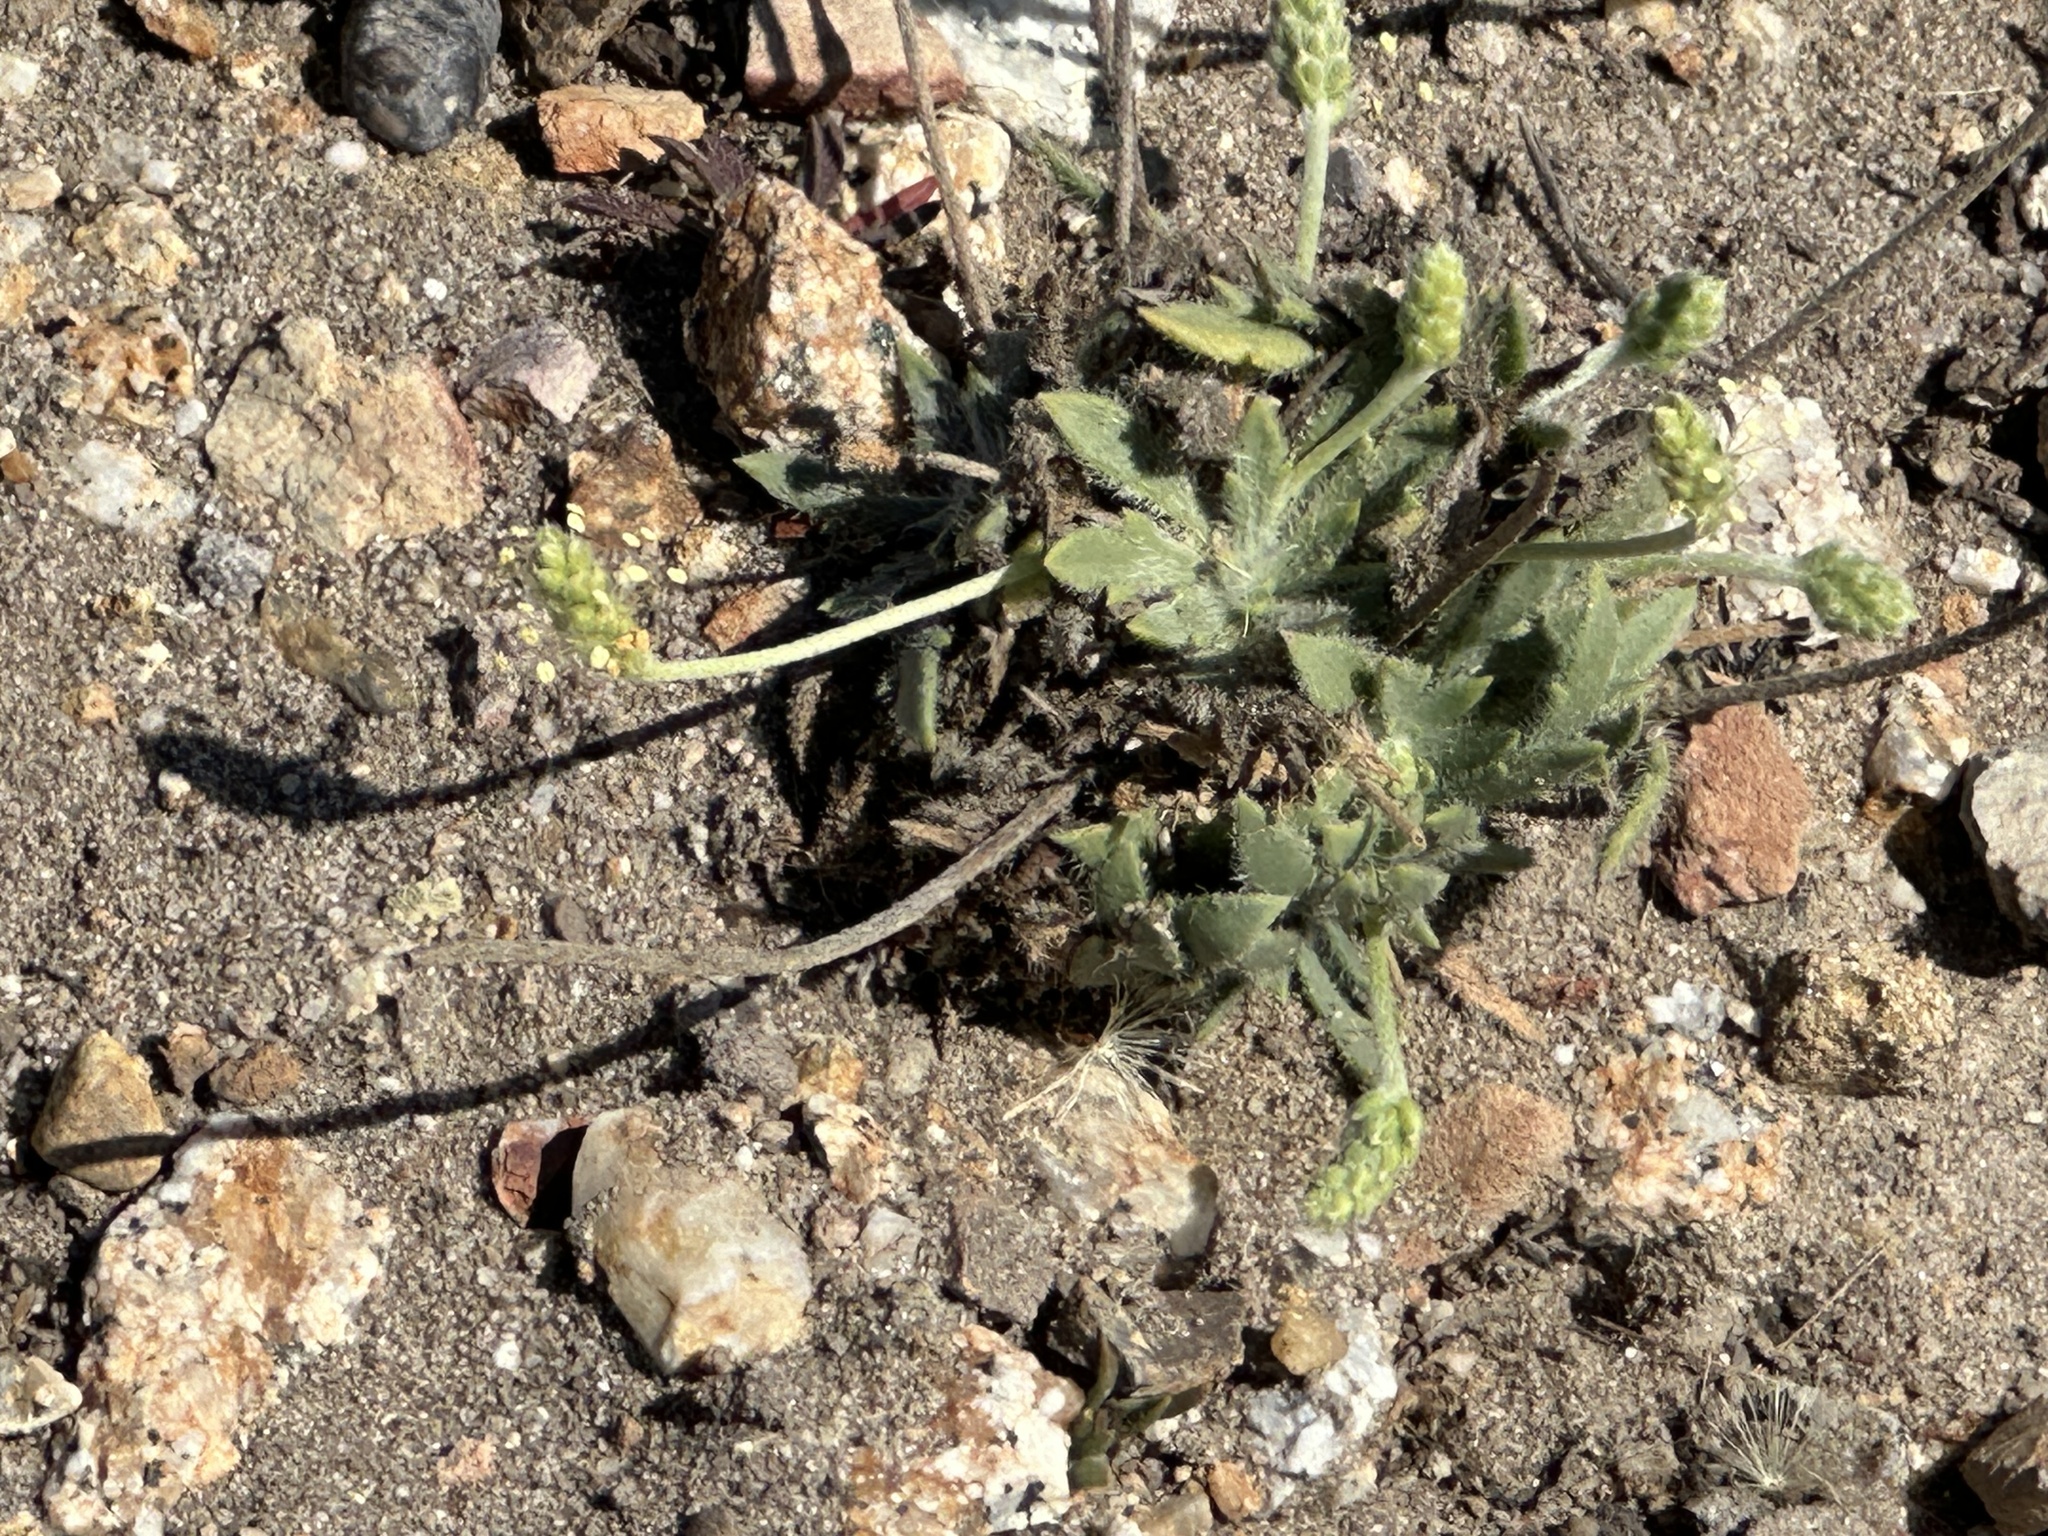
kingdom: Plantae
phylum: Tracheophyta
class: Magnoliopsida
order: Lamiales
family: Plantaginaceae
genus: Plantago
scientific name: Plantago coronopus
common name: Buck's-horn plantain
